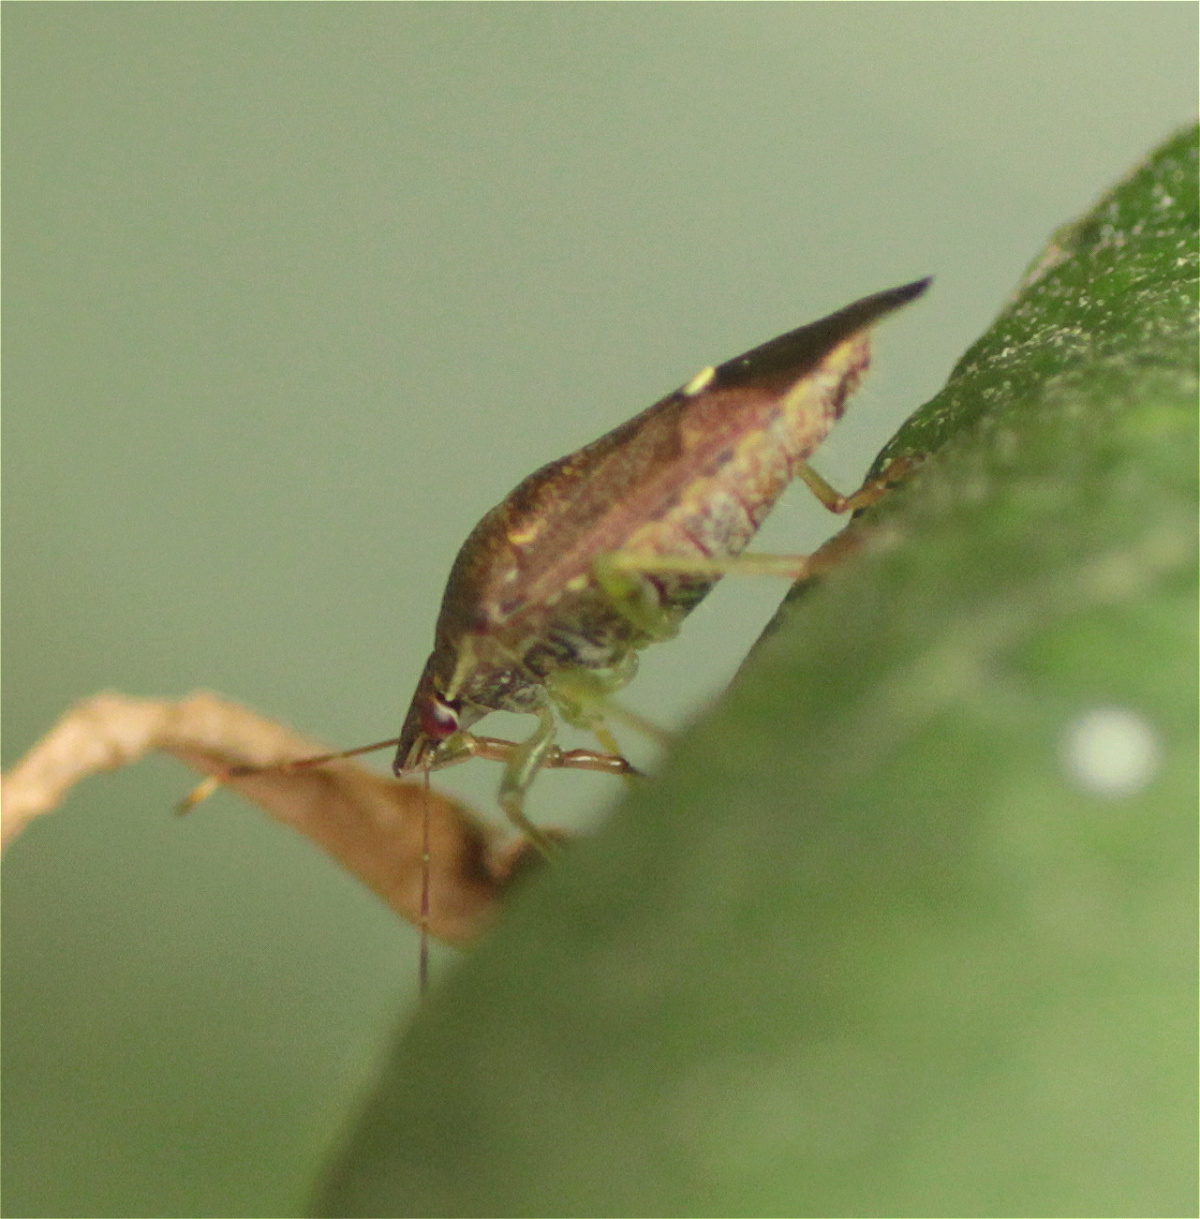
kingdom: Animalia
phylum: Arthropoda
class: Insecta
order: Hemiptera
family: Pentatomidae
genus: Podisus
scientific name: Podisus thomasi
